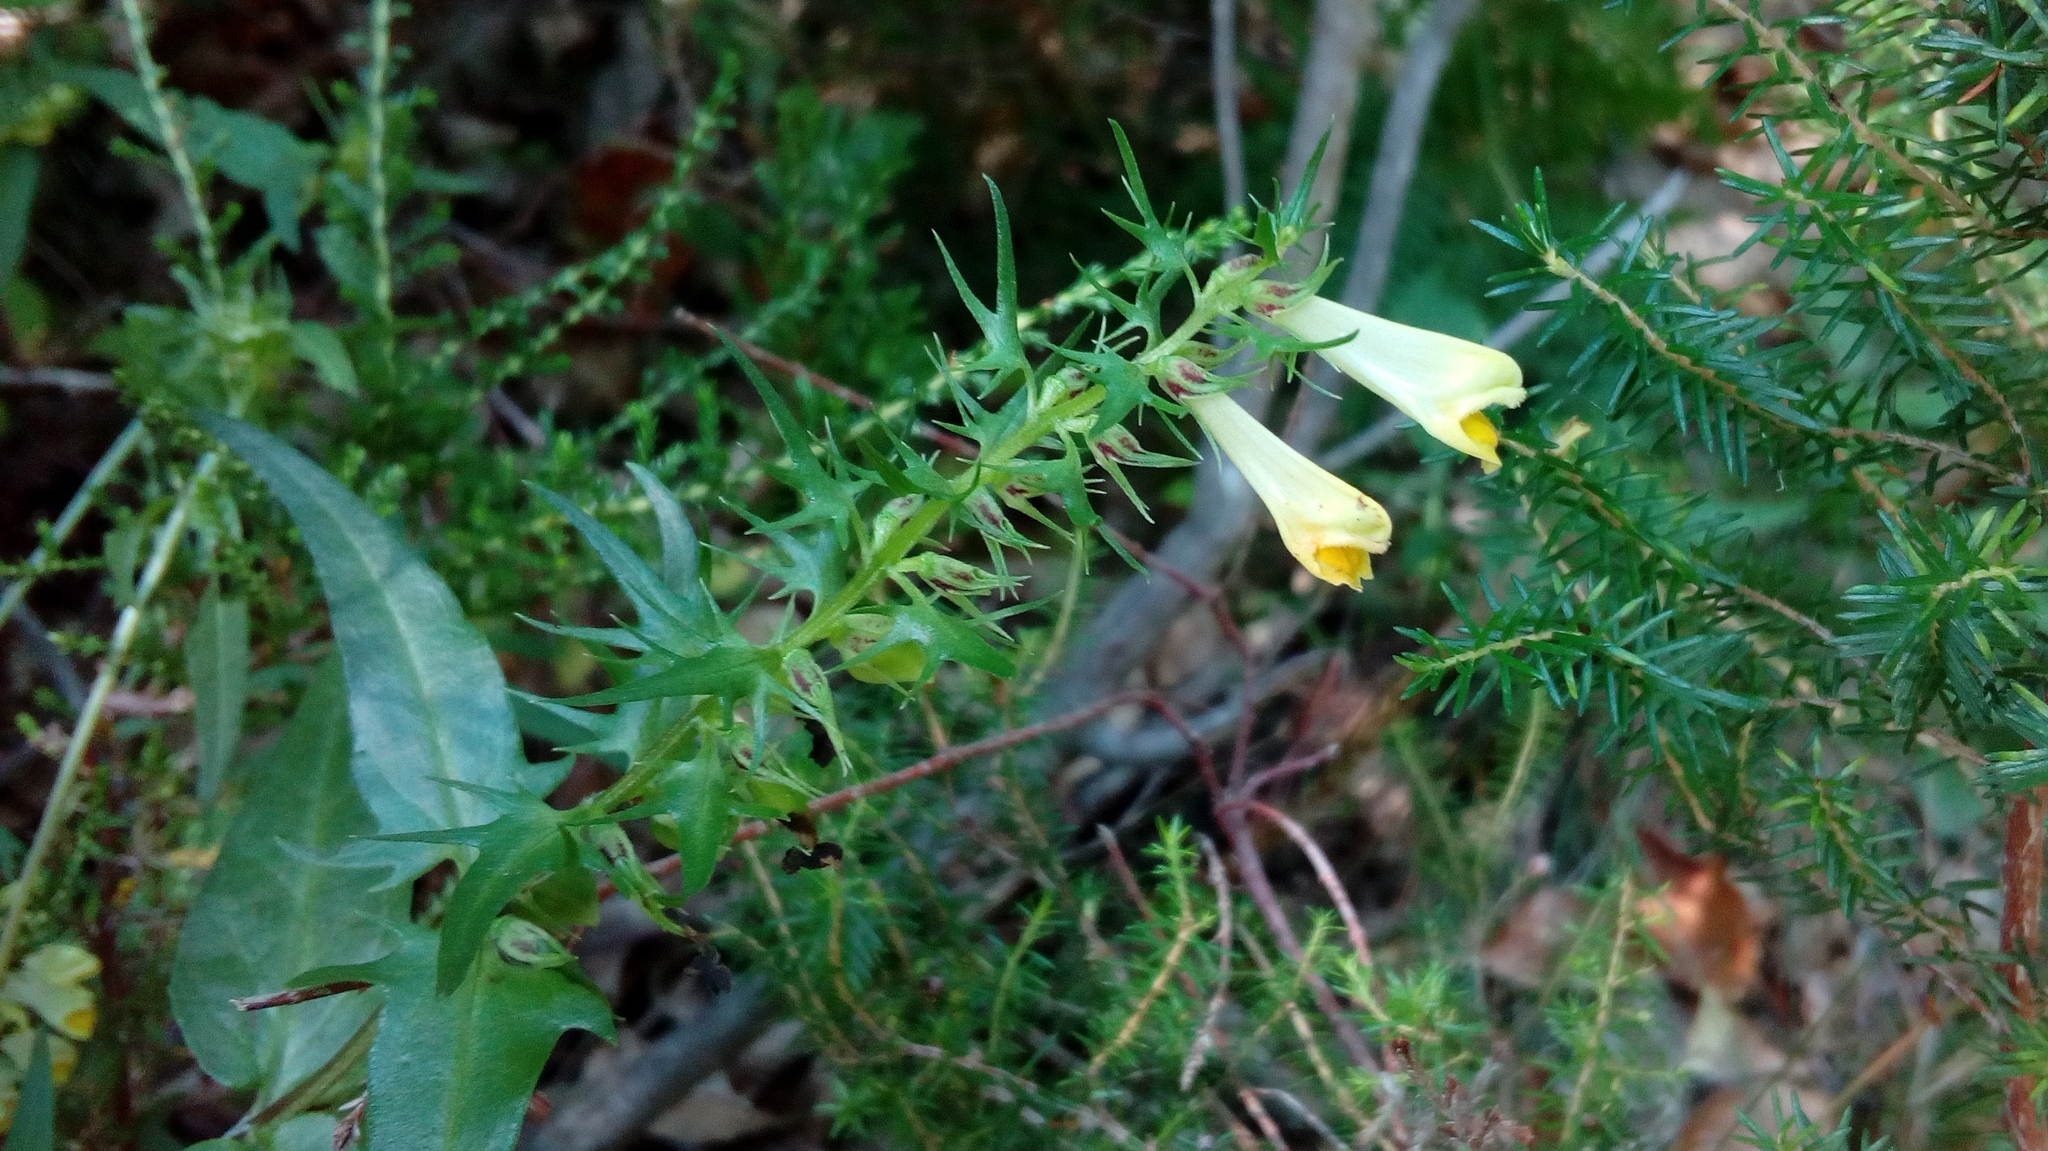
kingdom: Plantae
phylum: Tracheophyta
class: Magnoliopsida
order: Lamiales
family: Orobanchaceae
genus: Melampyrum
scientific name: Melampyrum pratense
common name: Common cow-wheat
